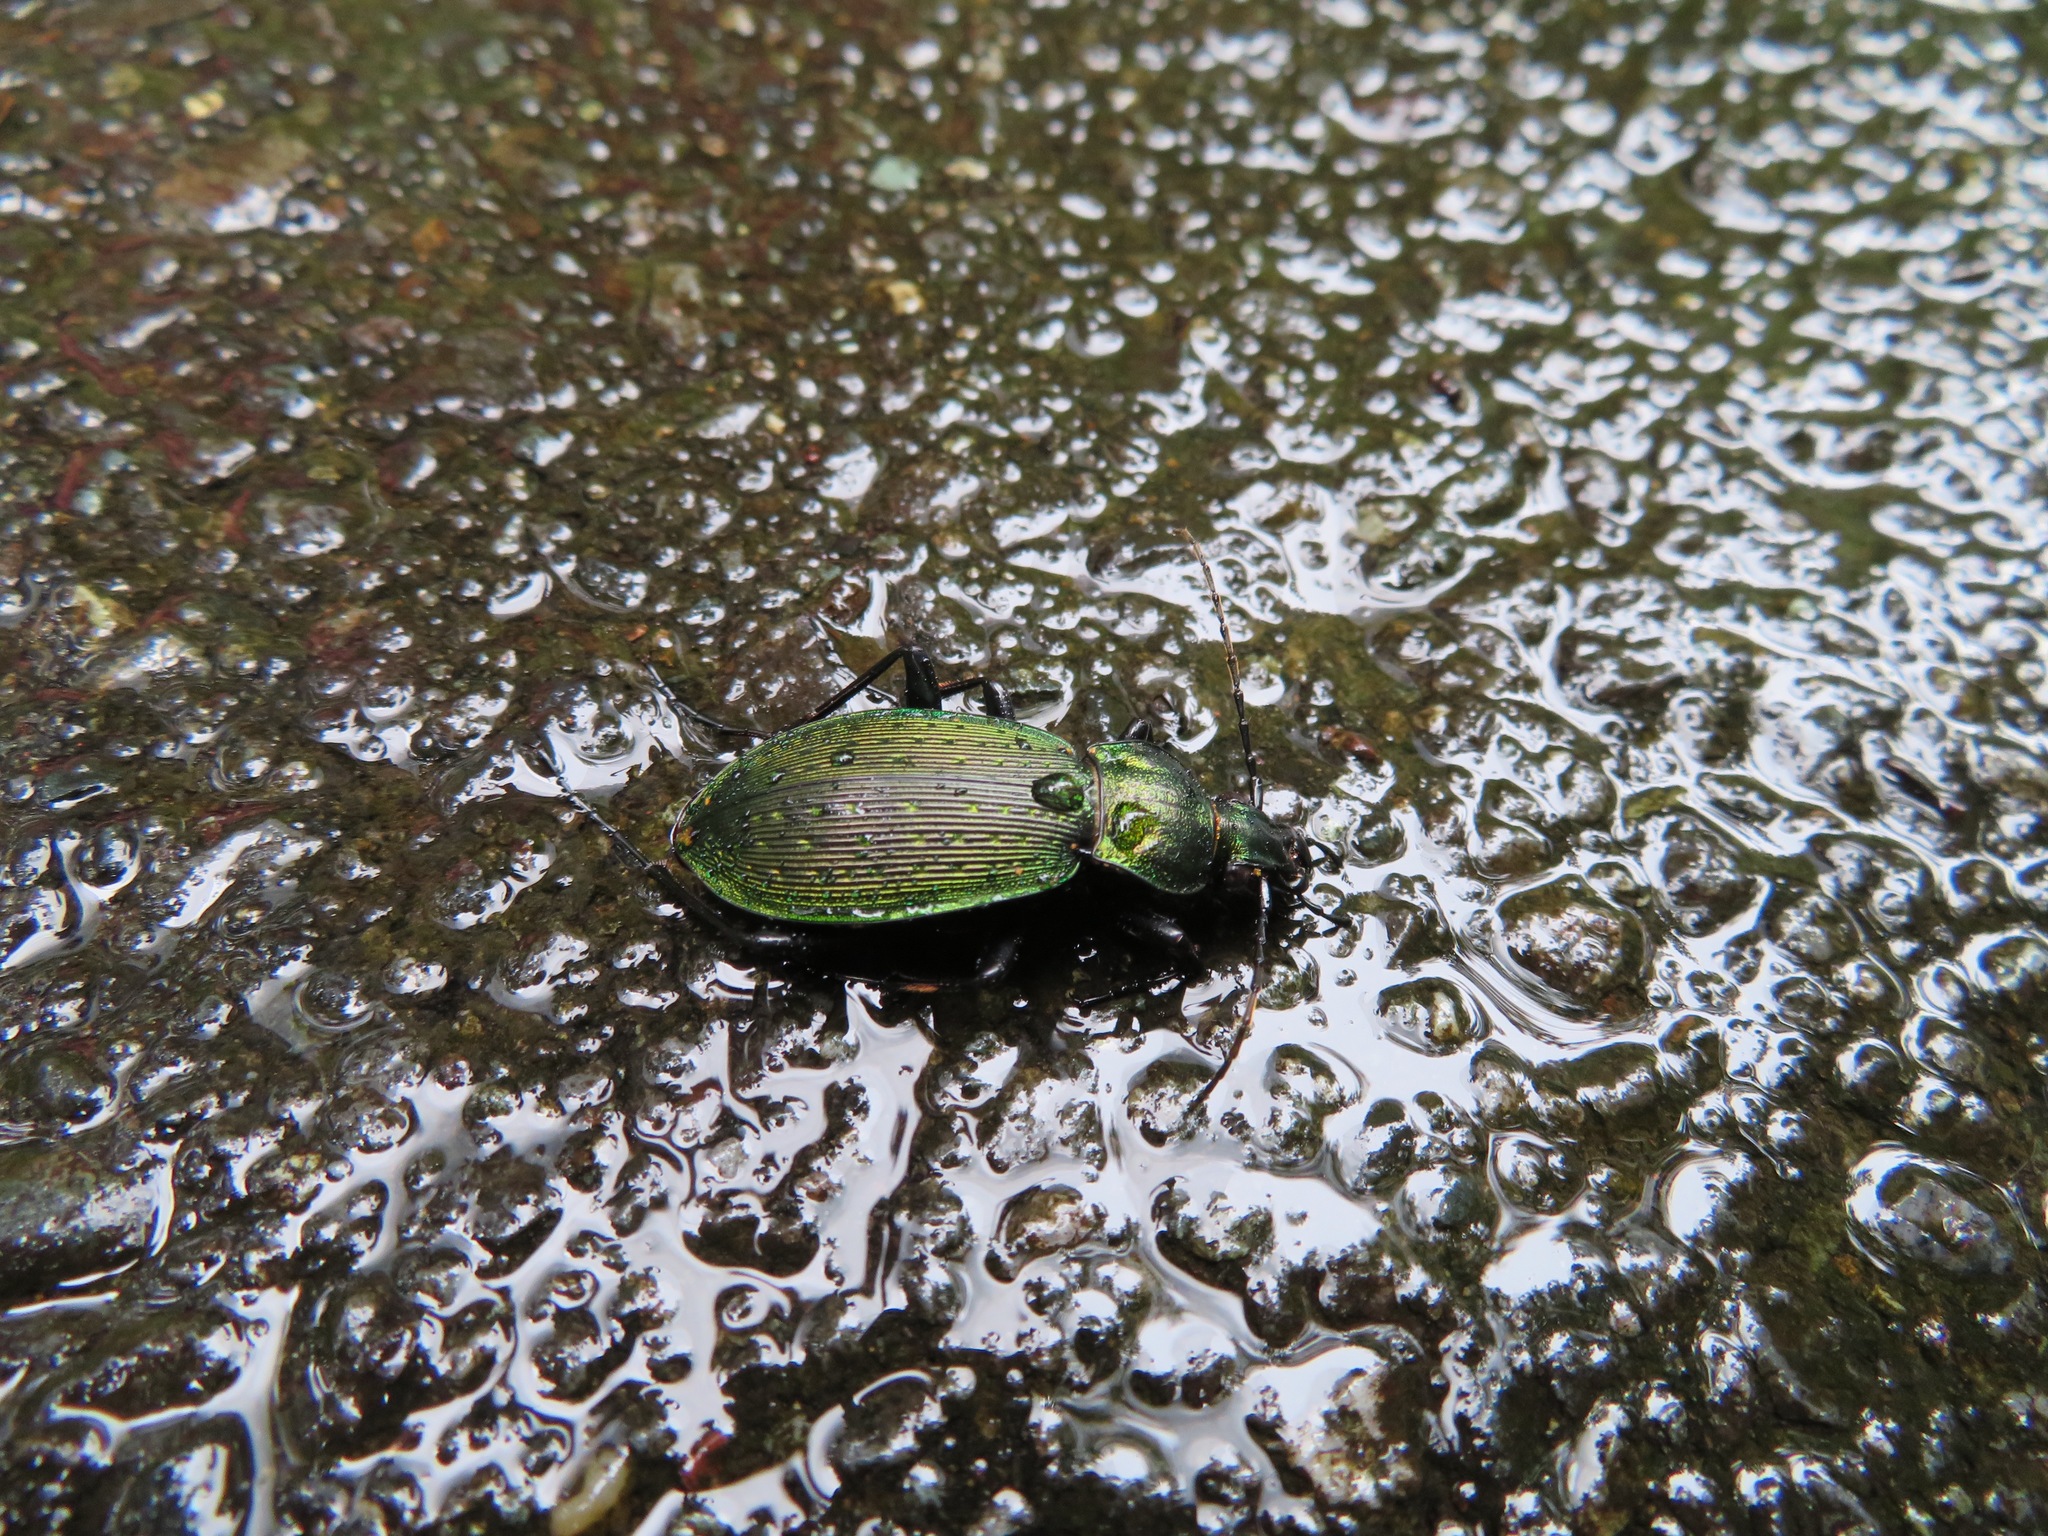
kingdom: Animalia
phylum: Arthropoda
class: Insecta
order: Coleoptera
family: Carabidae
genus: Carabus
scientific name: Carabus insulicola
